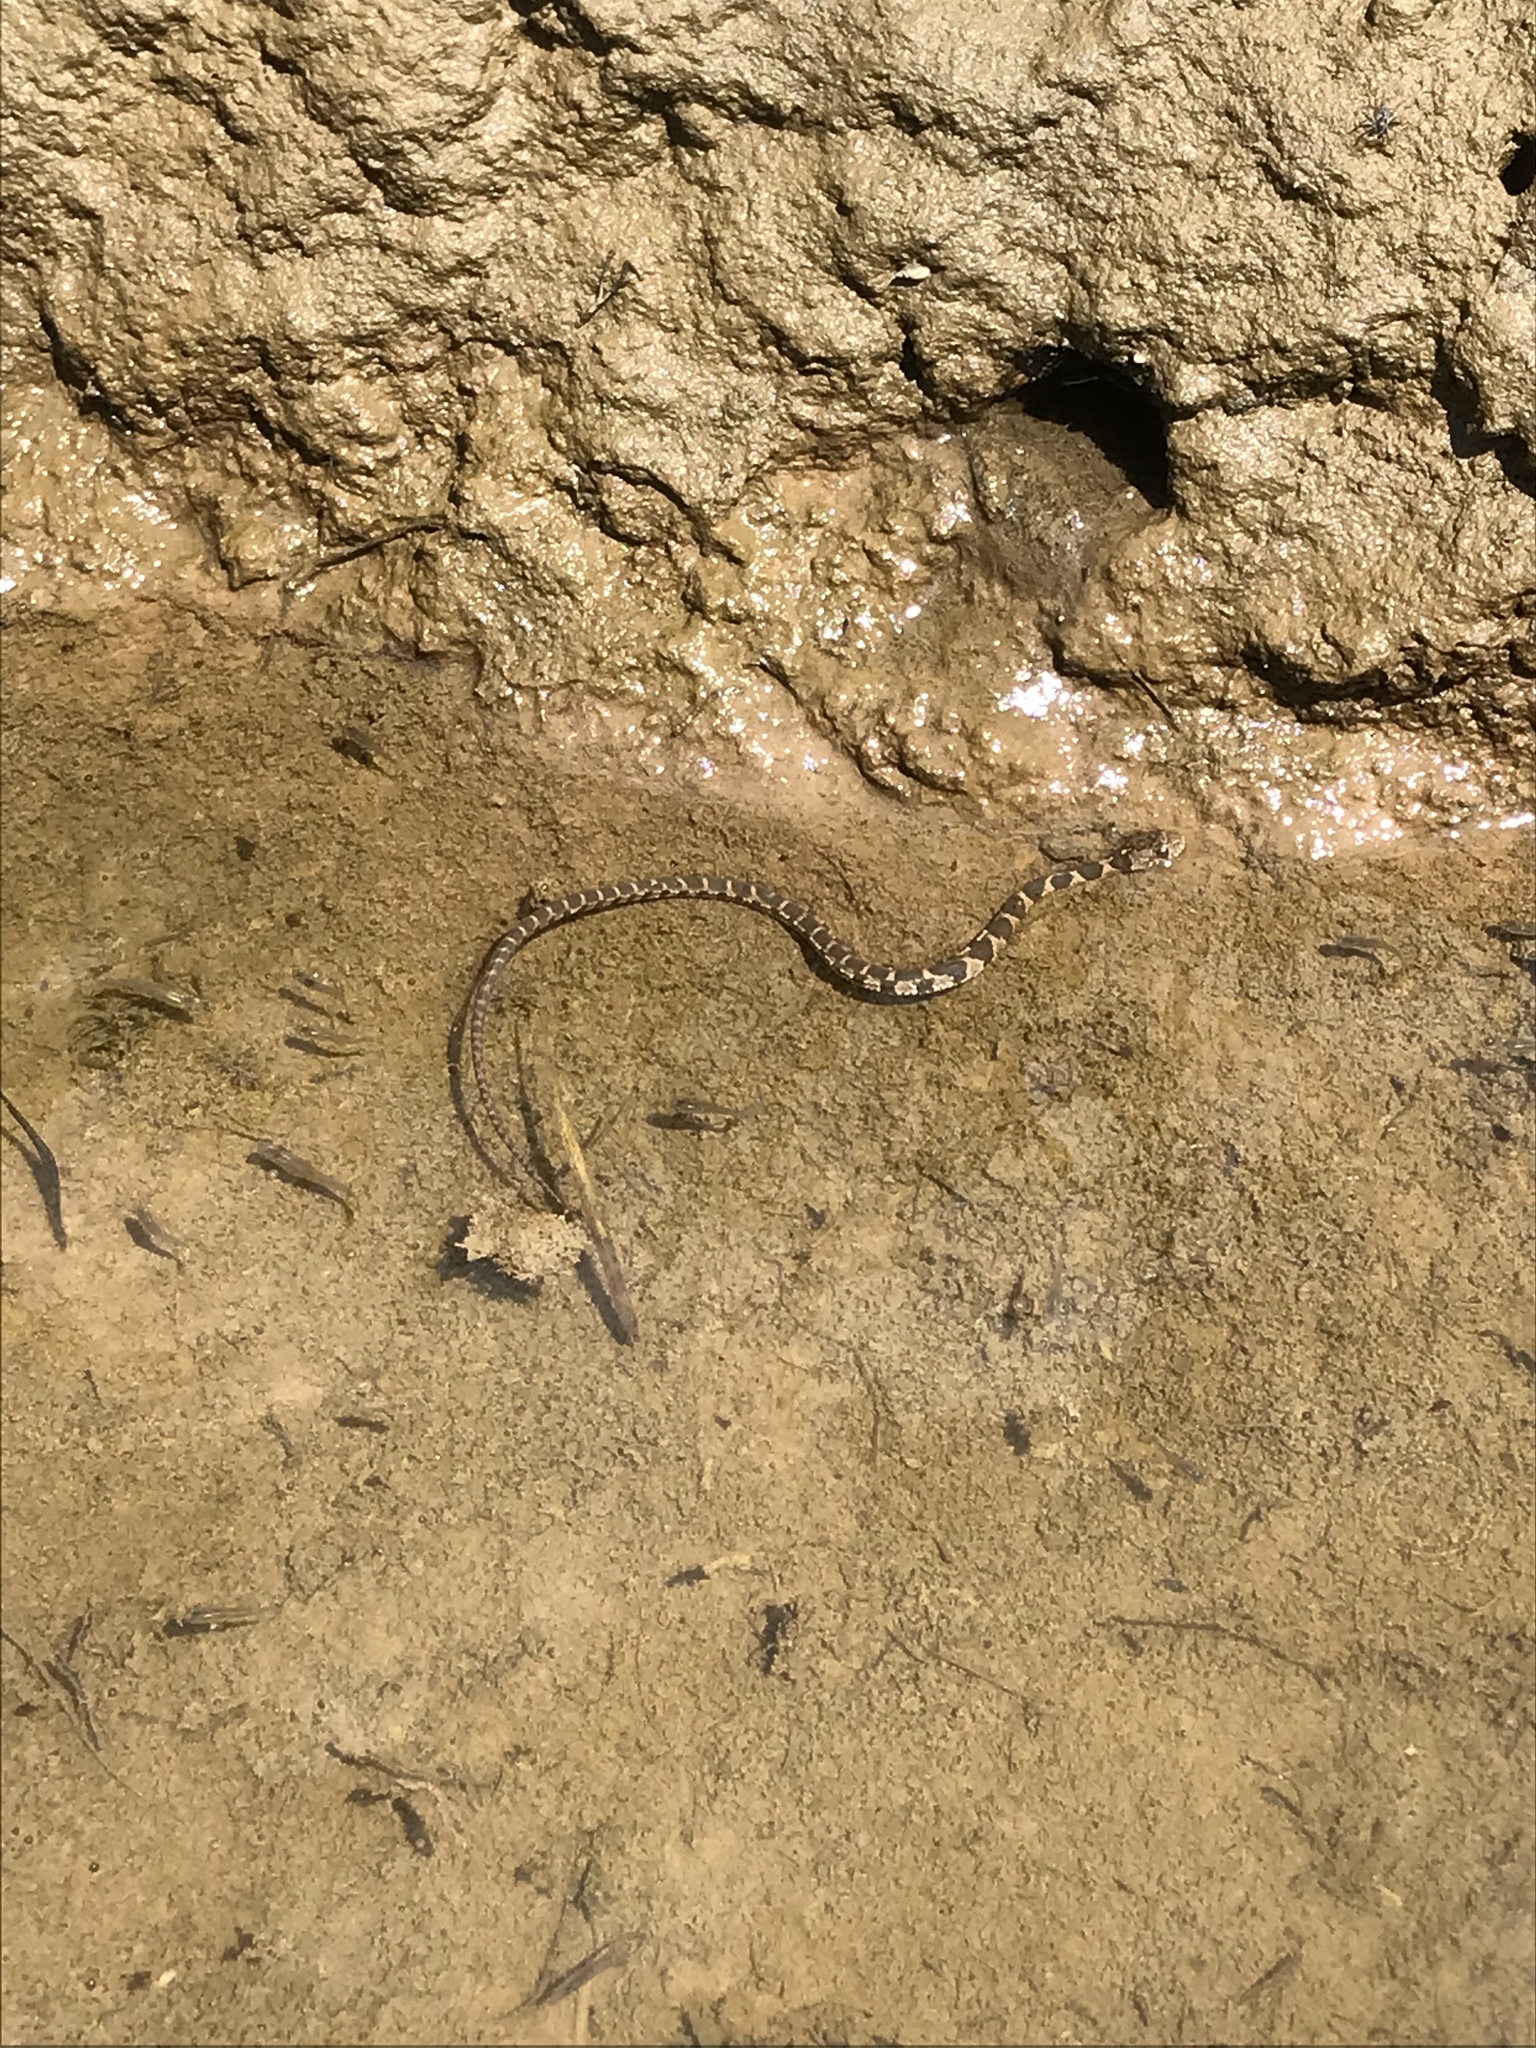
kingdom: Animalia
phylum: Chordata
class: Squamata
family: Colubridae
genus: Nerodia
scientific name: Nerodia sipedon
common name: Northern water snake
